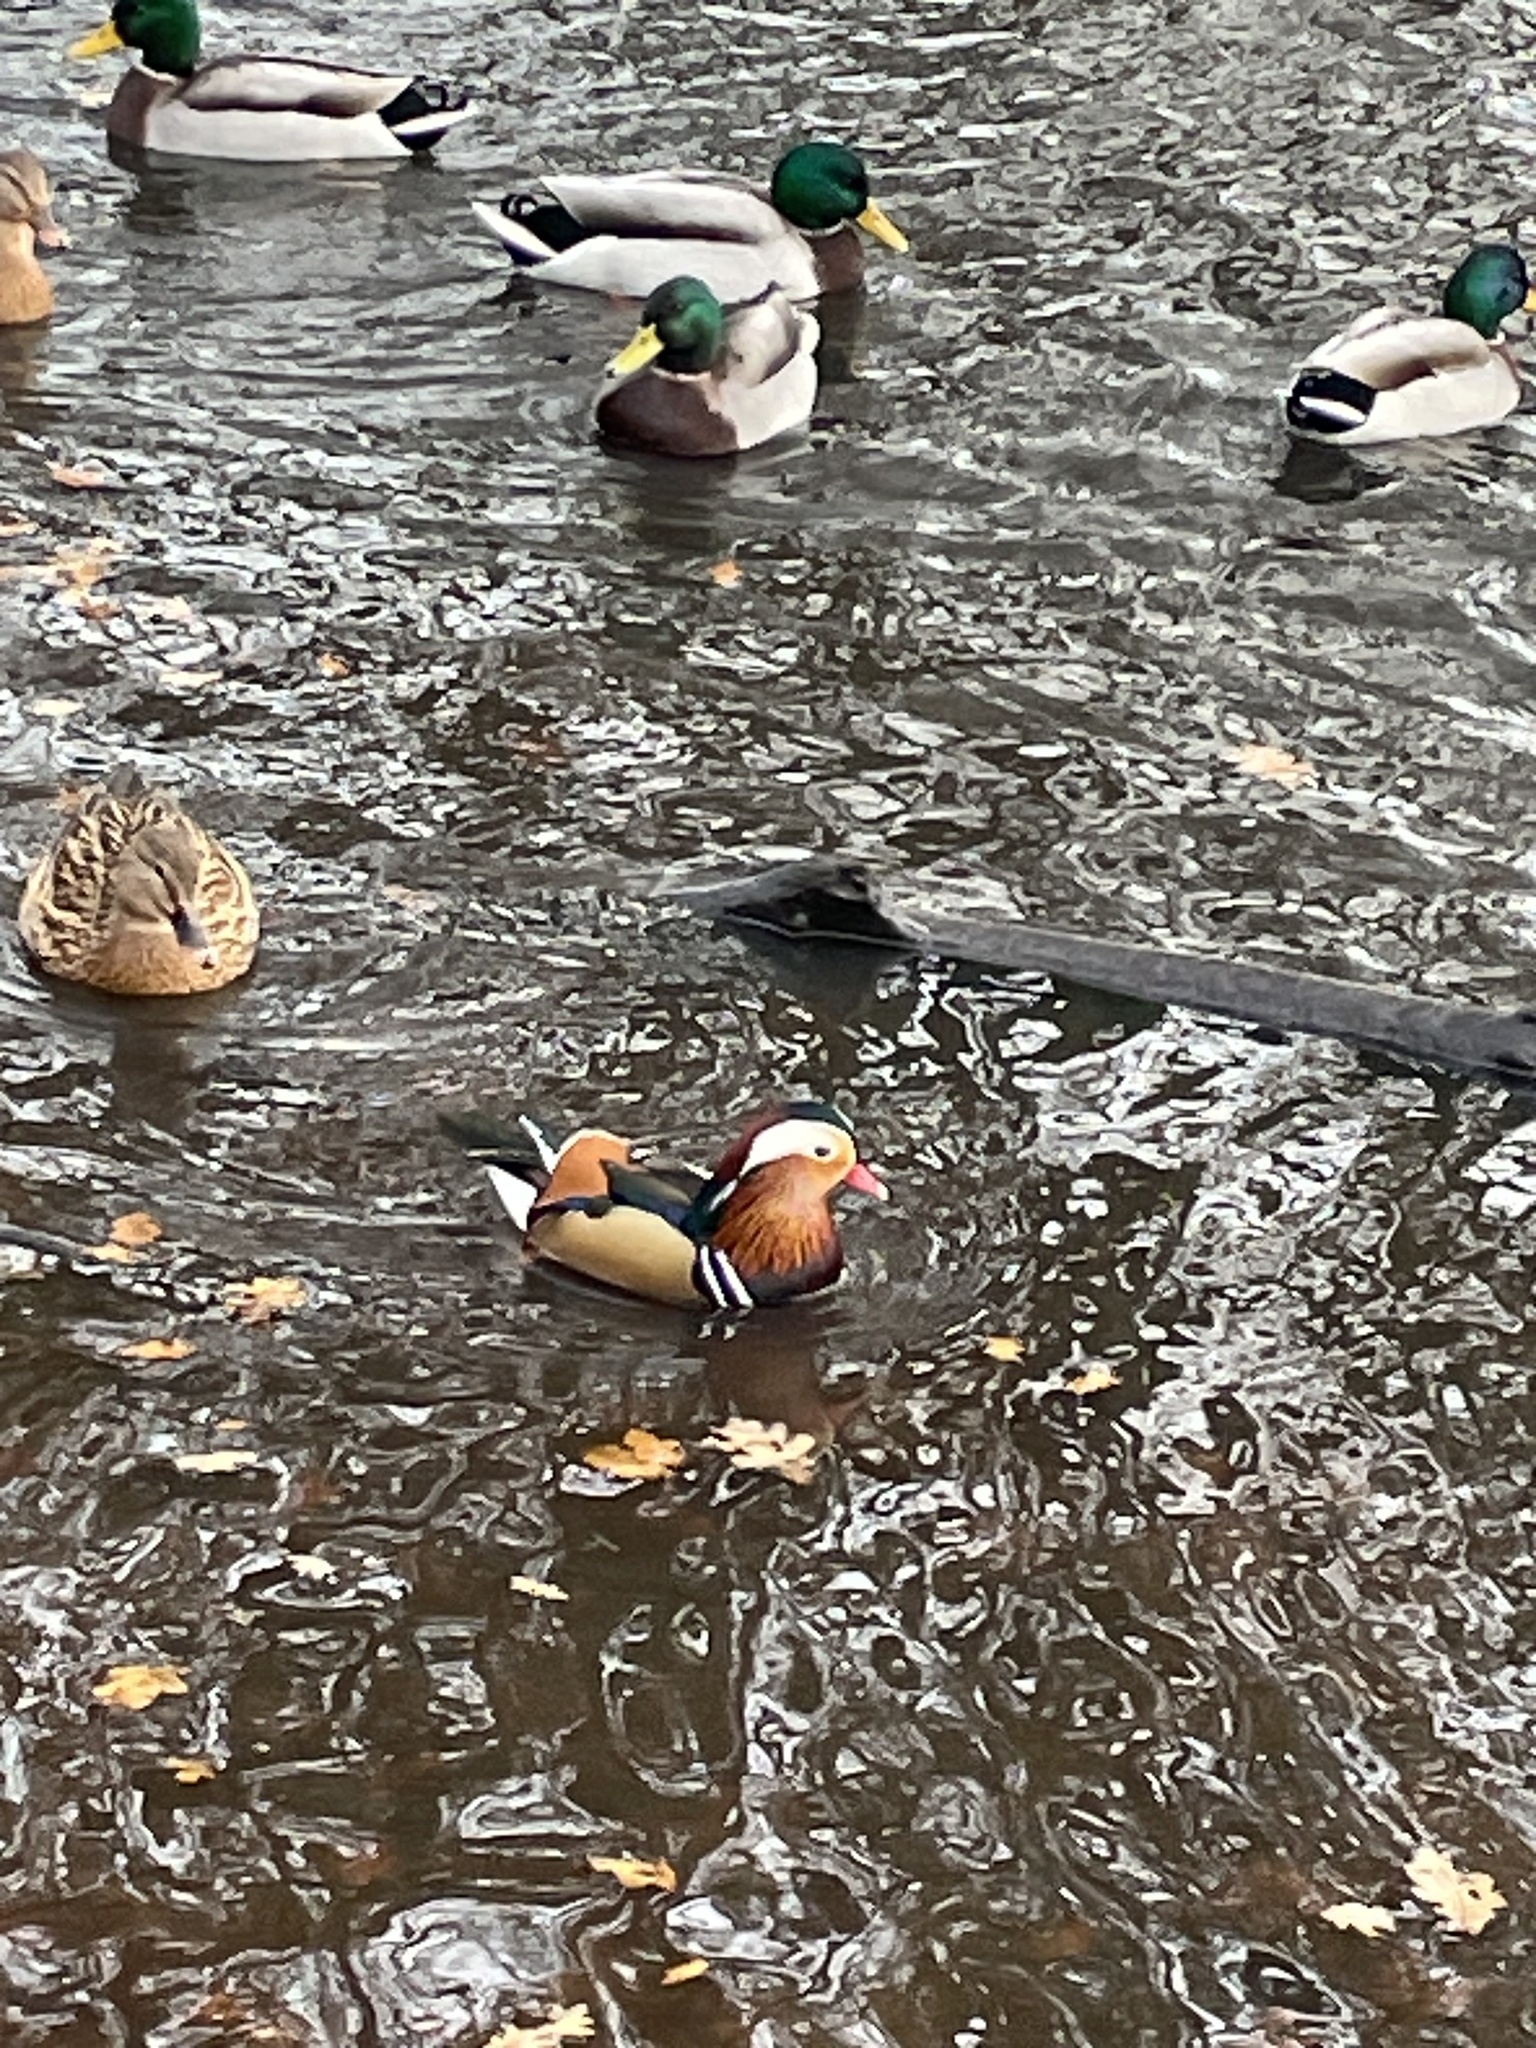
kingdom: Animalia
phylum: Chordata
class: Aves
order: Anseriformes
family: Anatidae
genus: Aix
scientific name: Aix galericulata
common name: Mandarin duck
